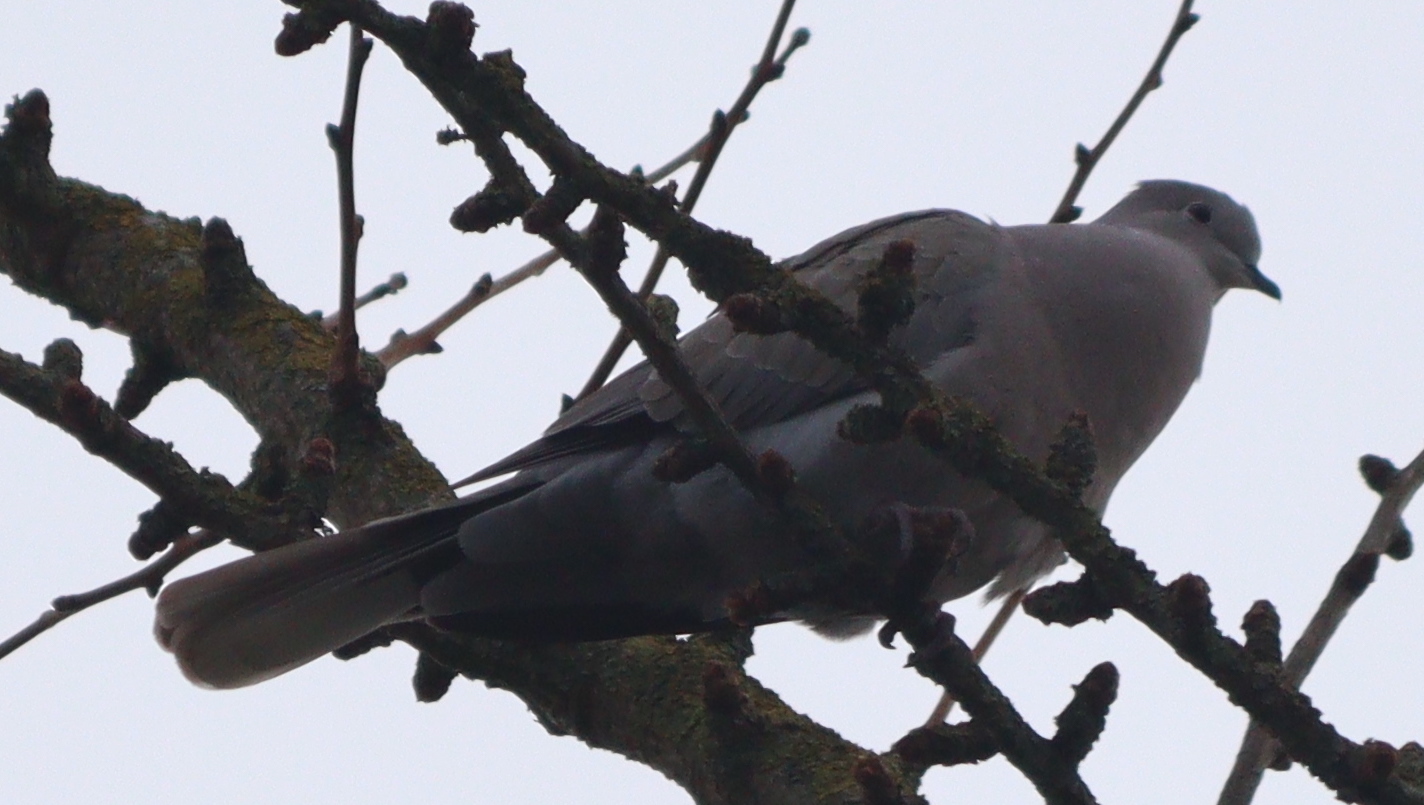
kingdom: Animalia
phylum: Chordata
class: Aves
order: Columbiformes
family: Columbidae
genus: Streptopelia
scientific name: Streptopelia decaocto
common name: Eurasian collared dove
